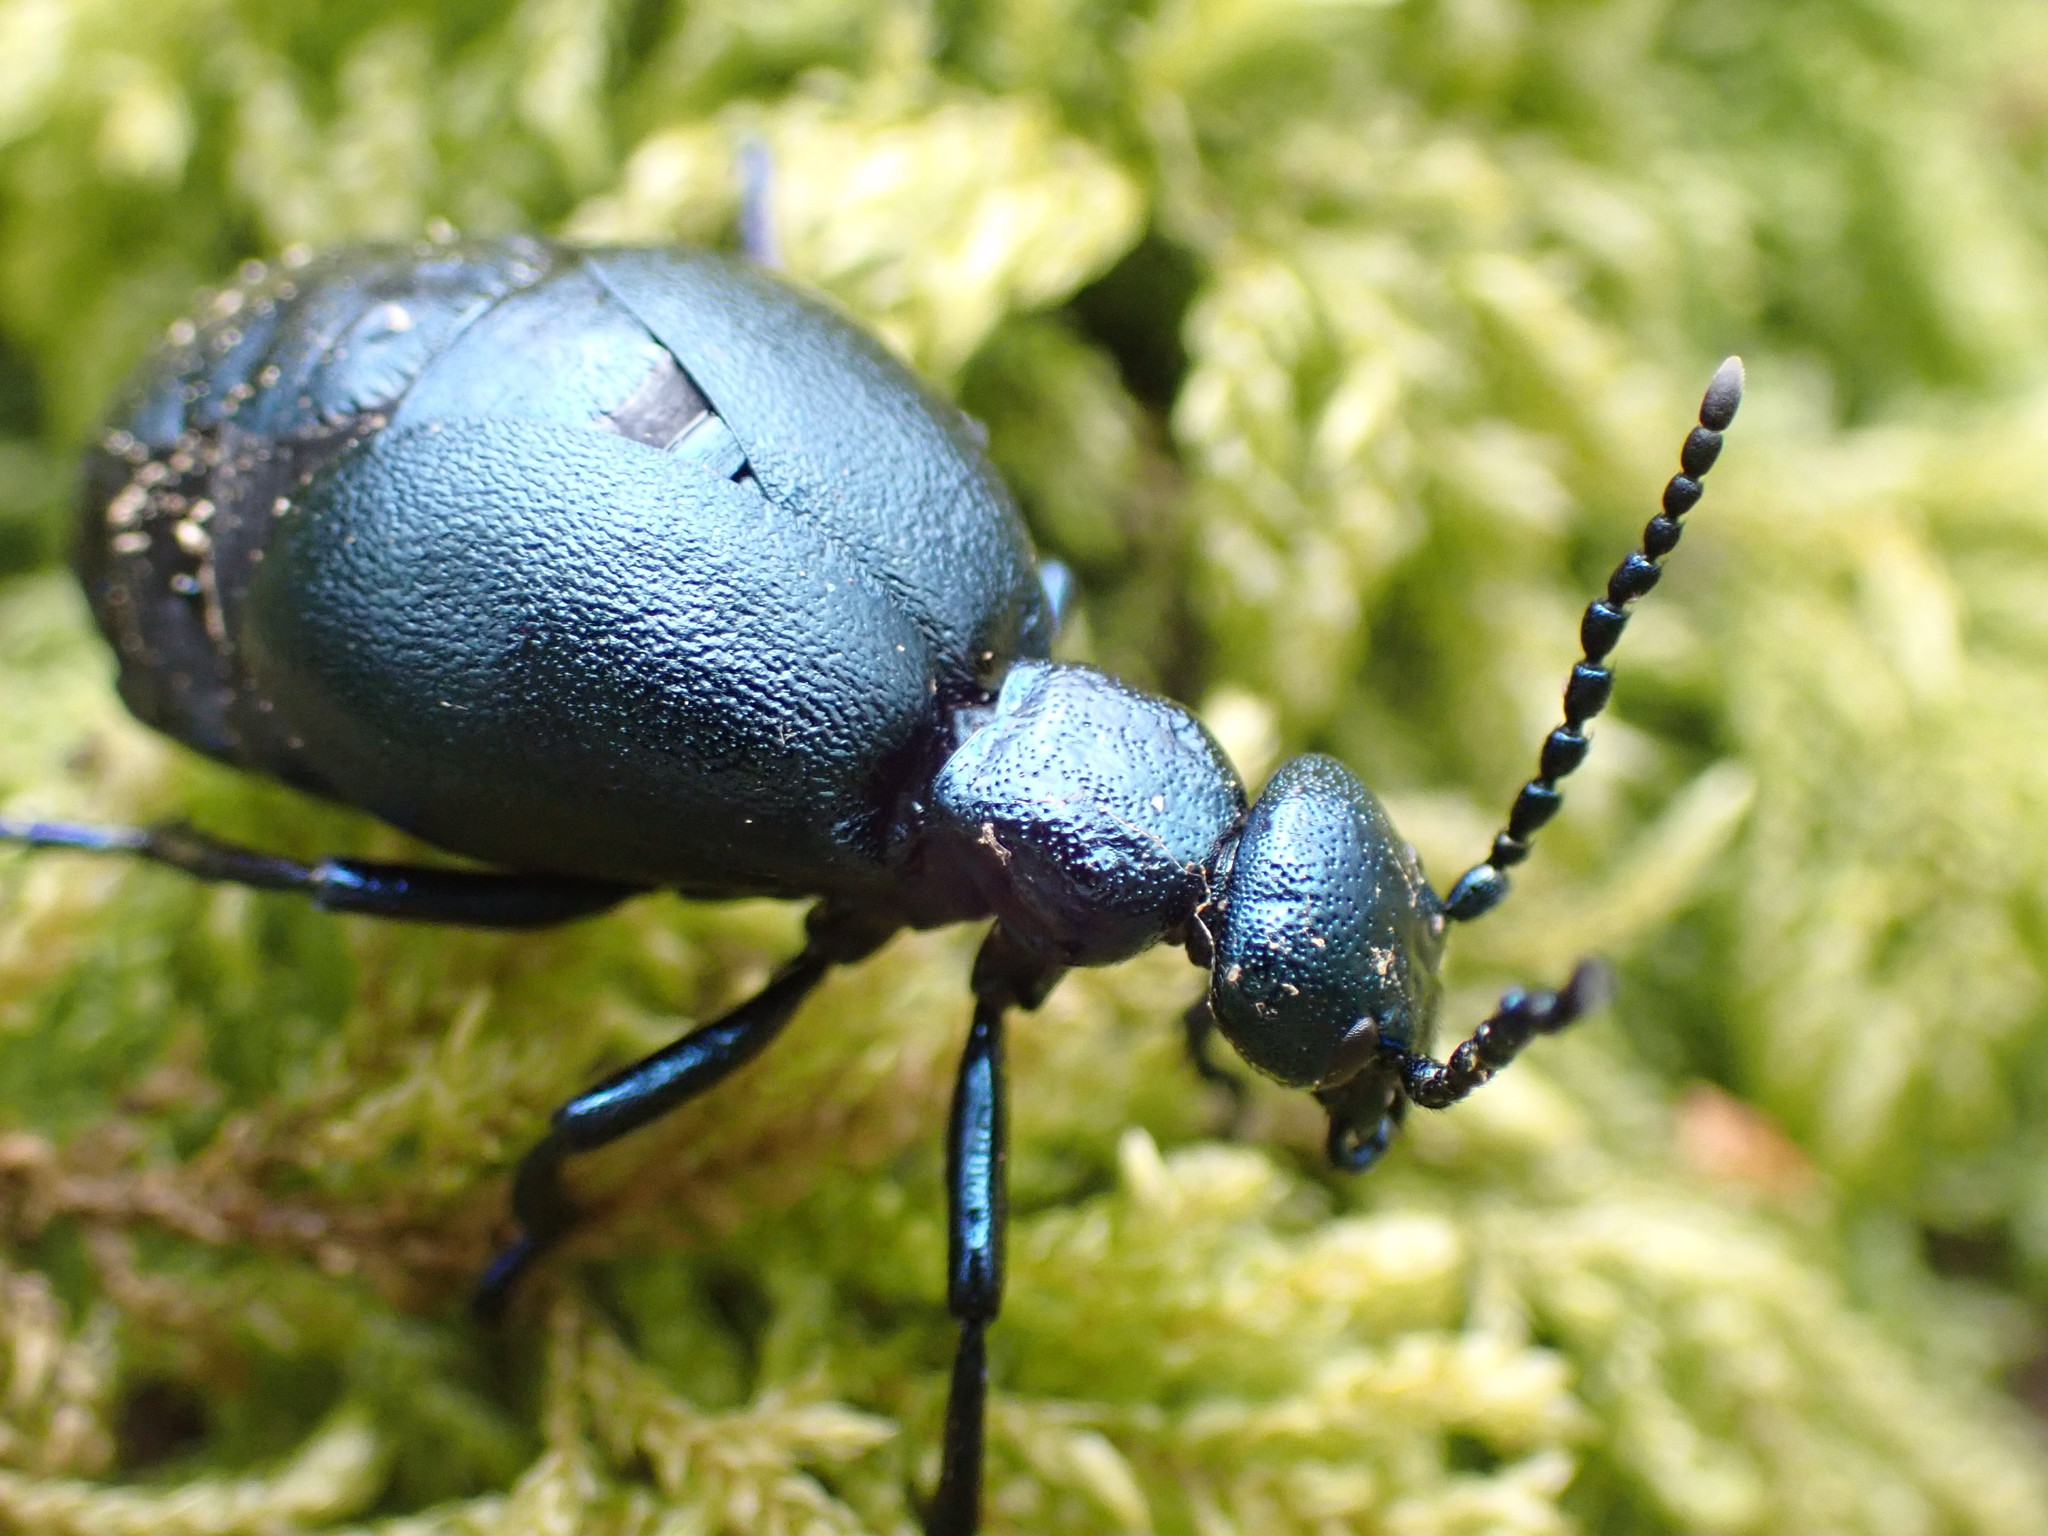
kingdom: Animalia
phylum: Arthropoda
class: Insecta
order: Coleoptera
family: Meloidae
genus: Meloe
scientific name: Meloe violaceus
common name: Violet oil-beetle
